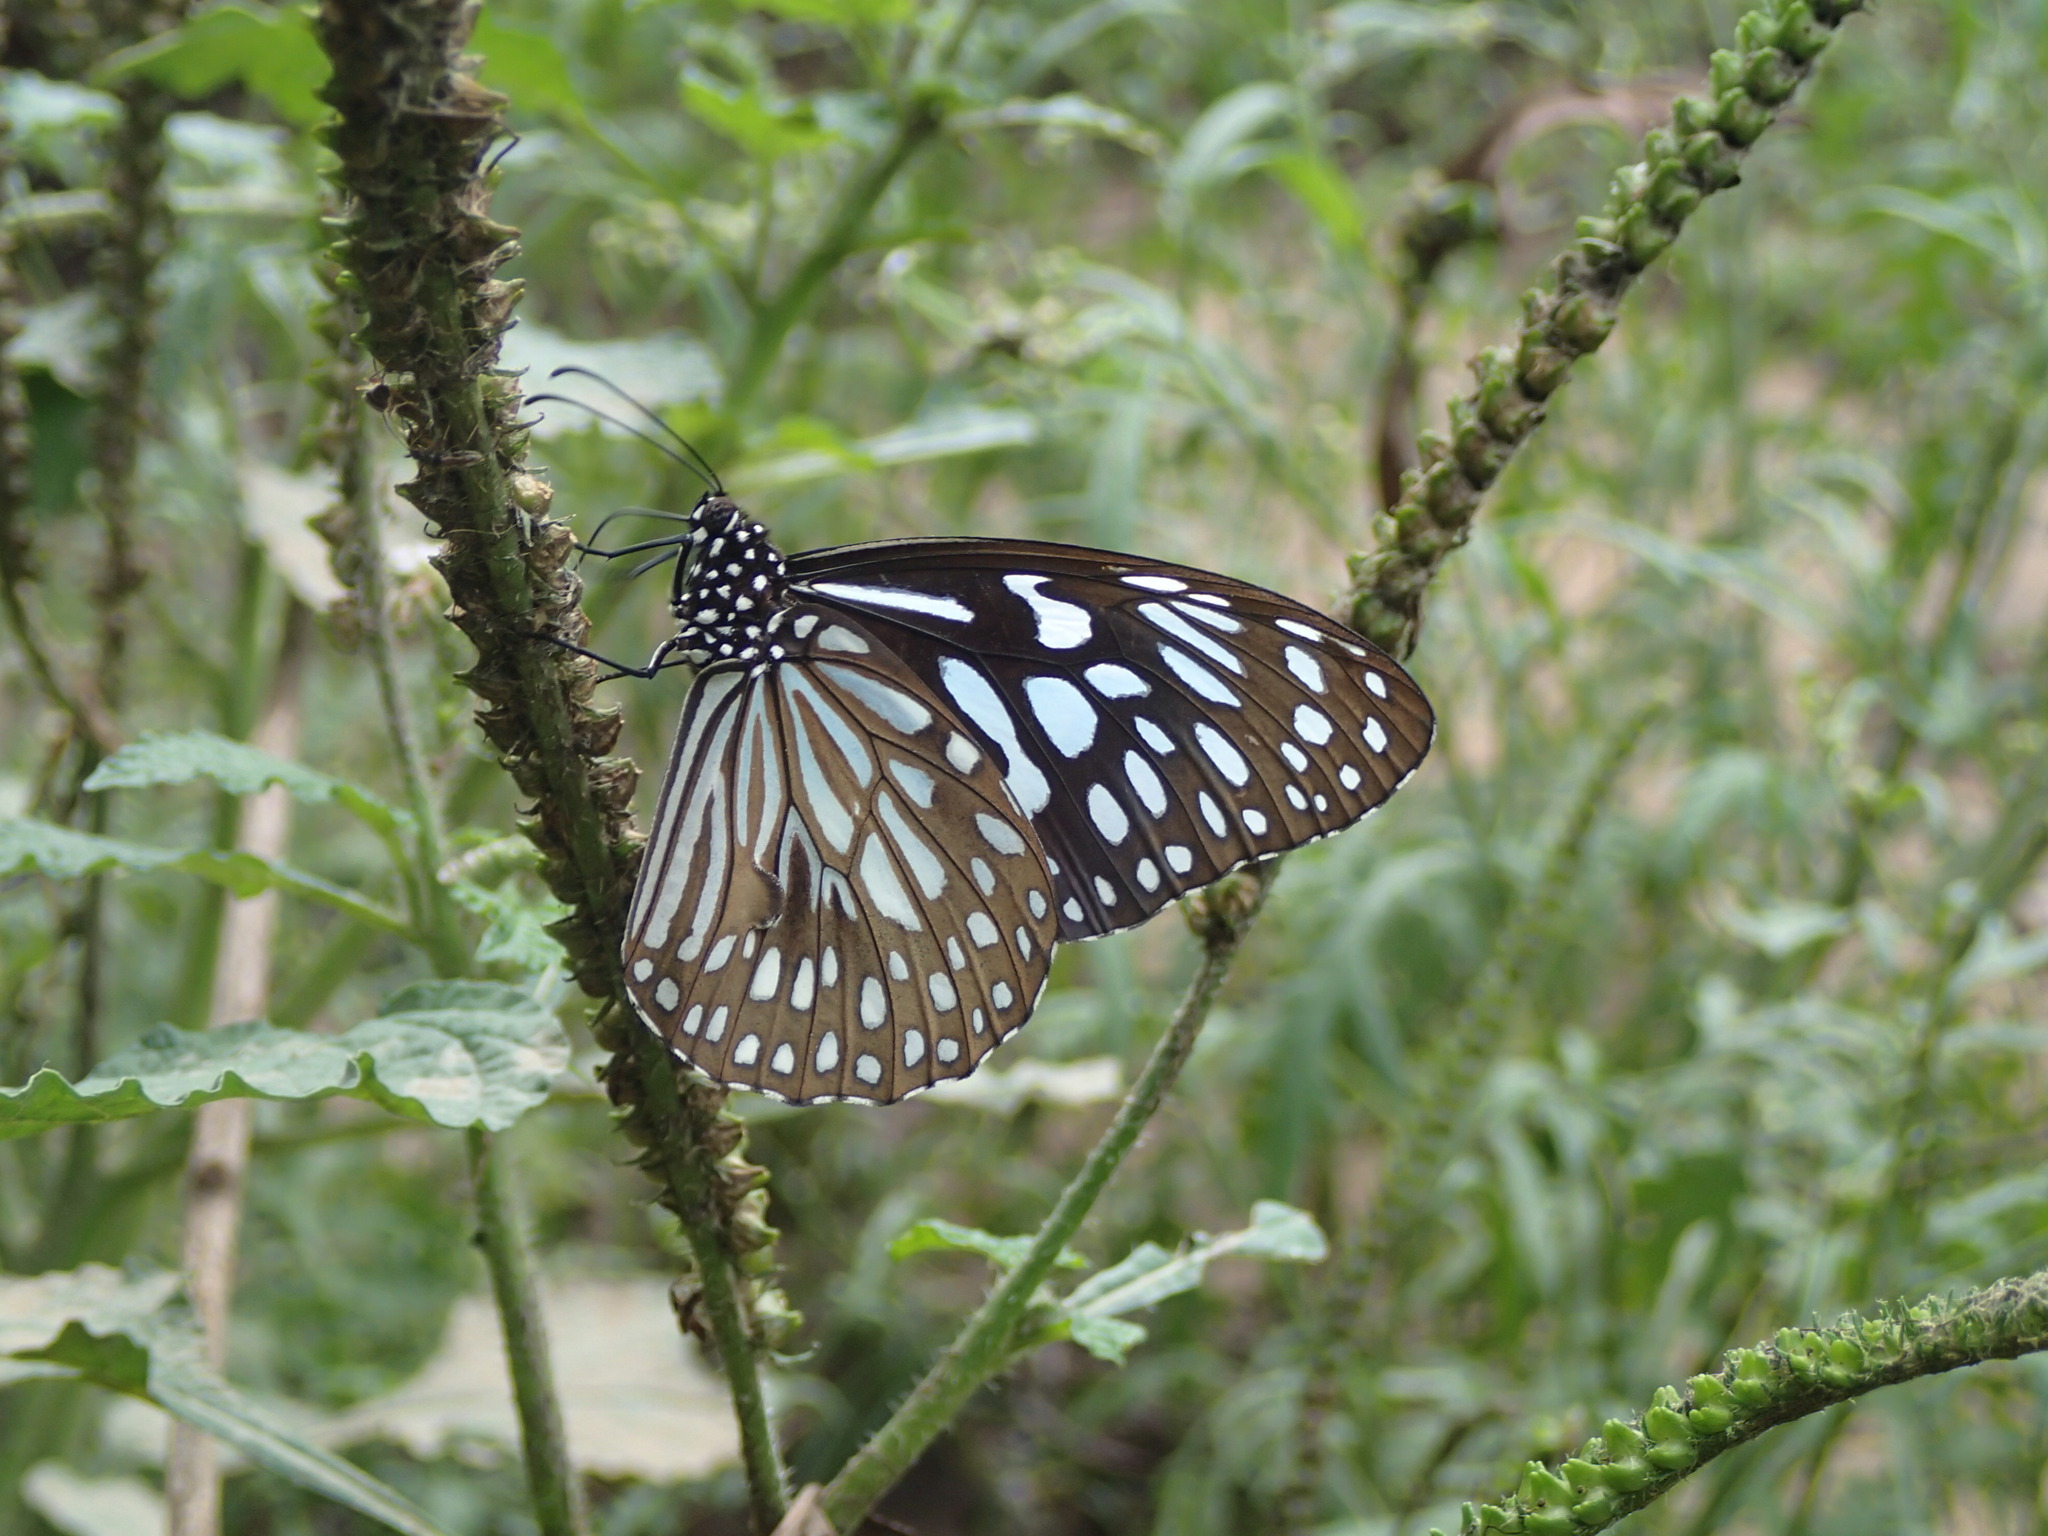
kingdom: Animalia
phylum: Arthropoda
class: Insecta
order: Lepidoptera
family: Nymphalidae
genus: Tirumala
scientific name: Tirumala septentrionis
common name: Dark blue tiger butterfly
